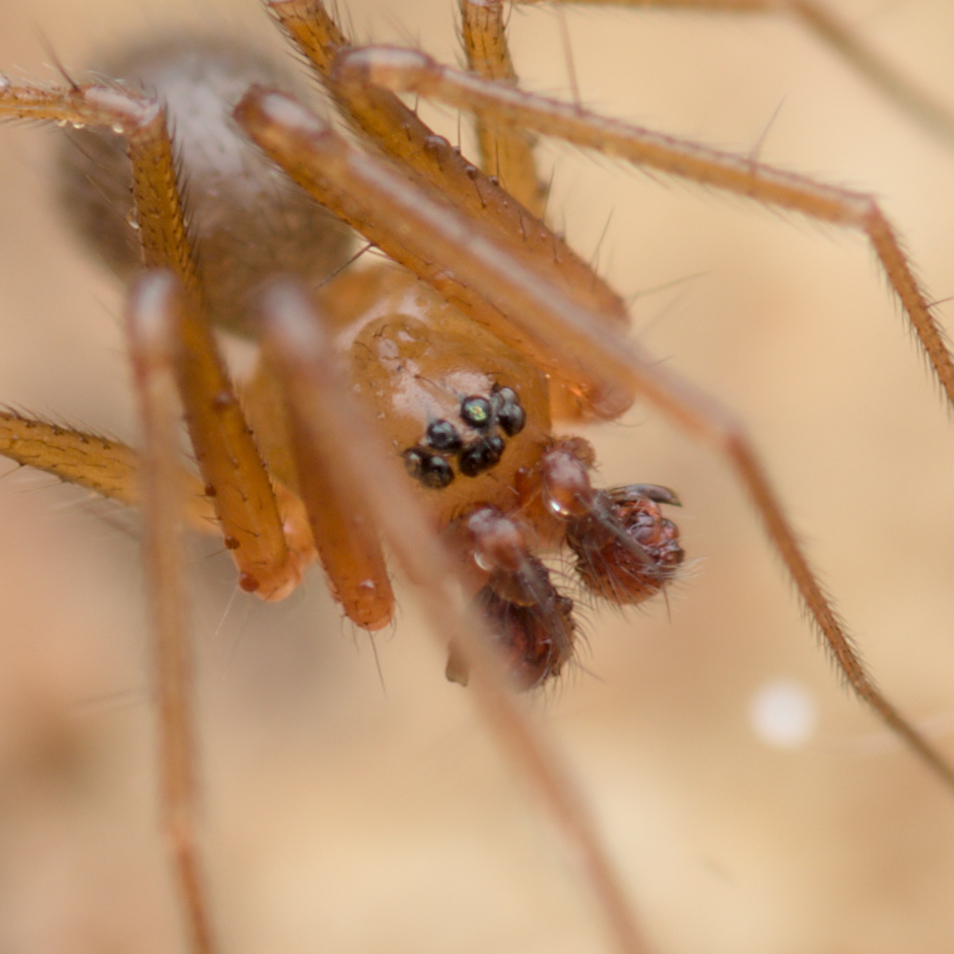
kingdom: Animalia
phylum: Arthropoda
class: Arachnida
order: Araneae
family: Linyphiidae
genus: Palliduphantes
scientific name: Palliduphantes pallidus
